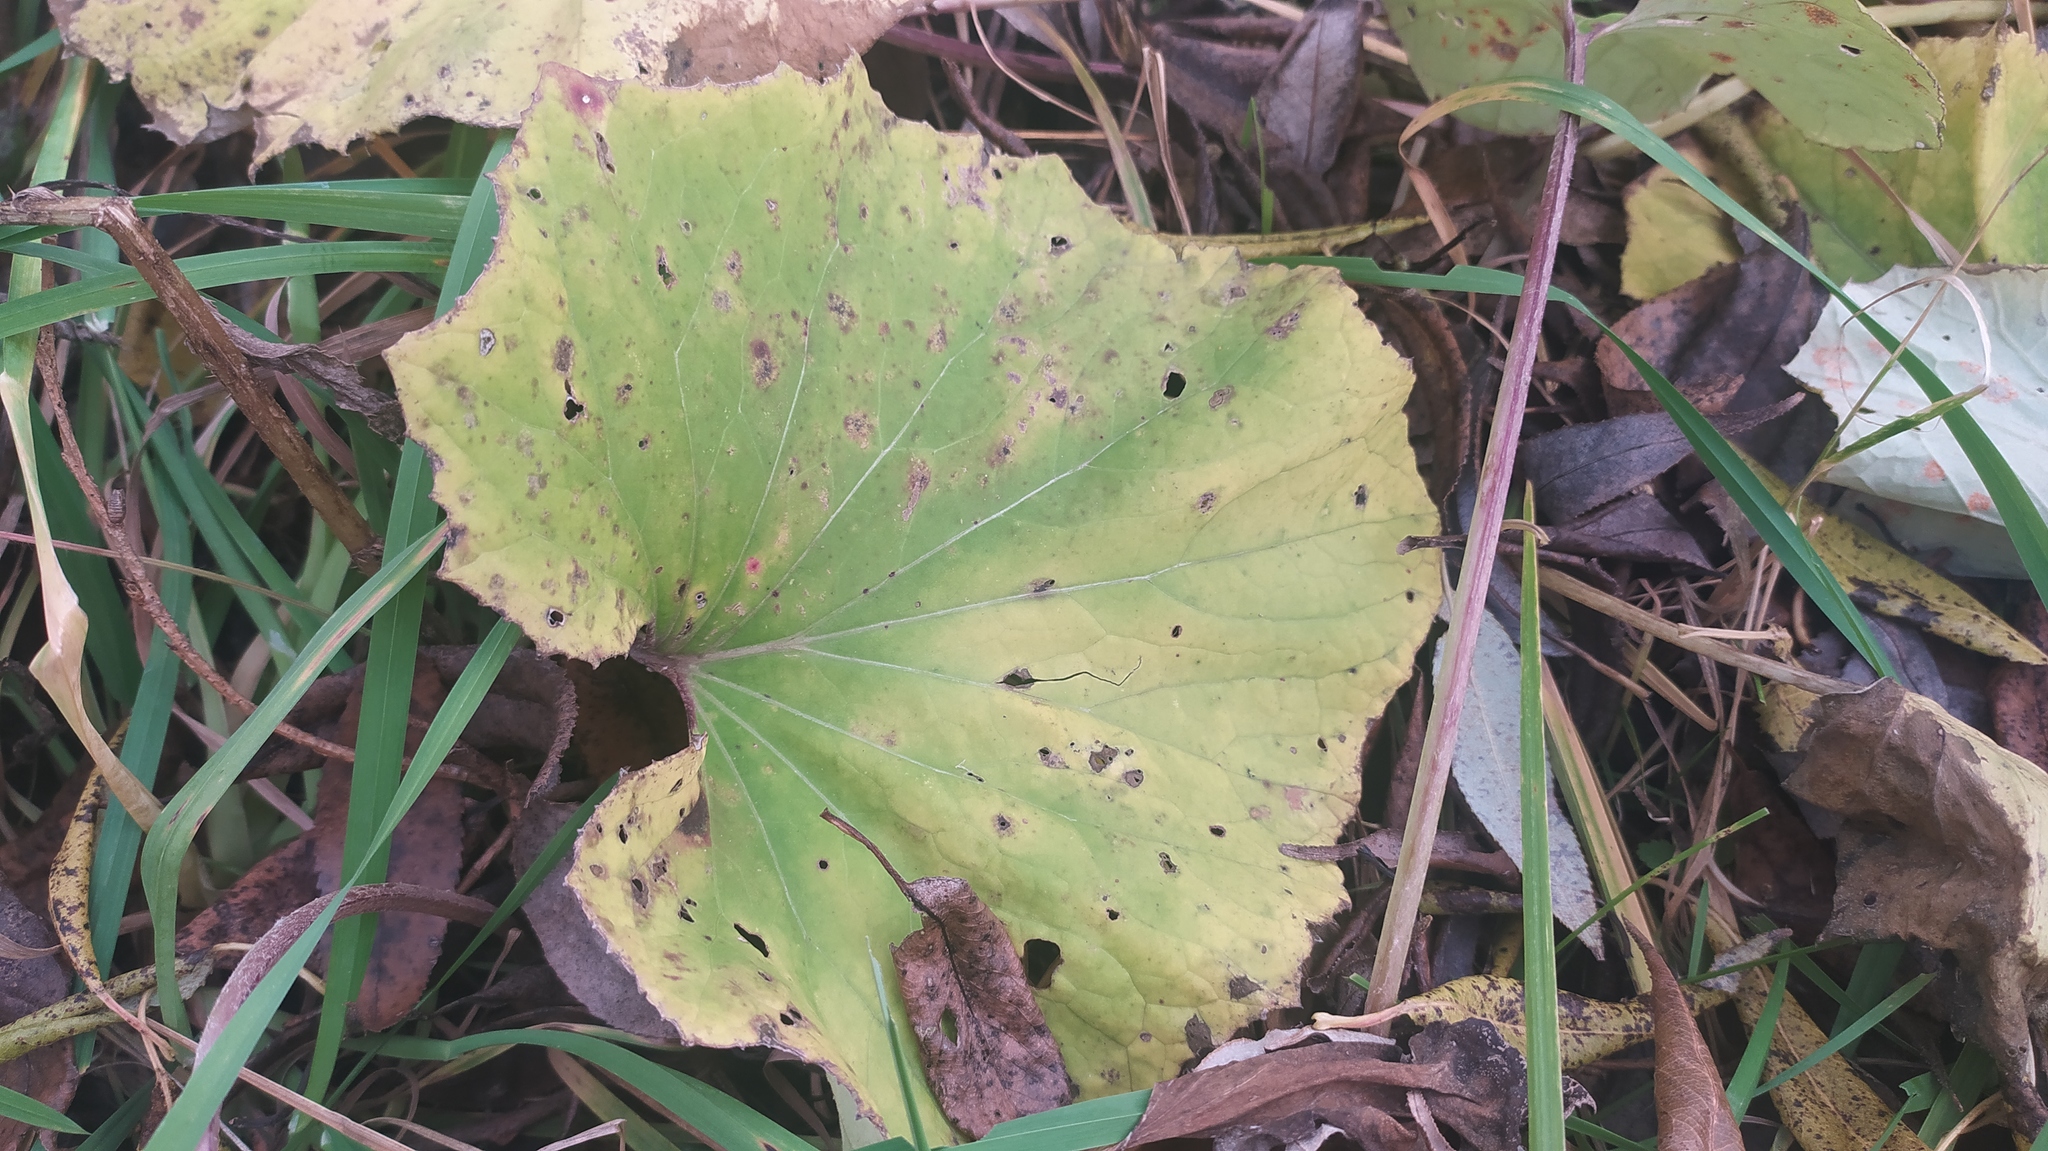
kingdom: Plantae
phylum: Tracheophyta
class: Magnoliopsida
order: Asterales
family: Asteraceae
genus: Tussilago
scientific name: Tussilago farfara
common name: Coltsfoot
